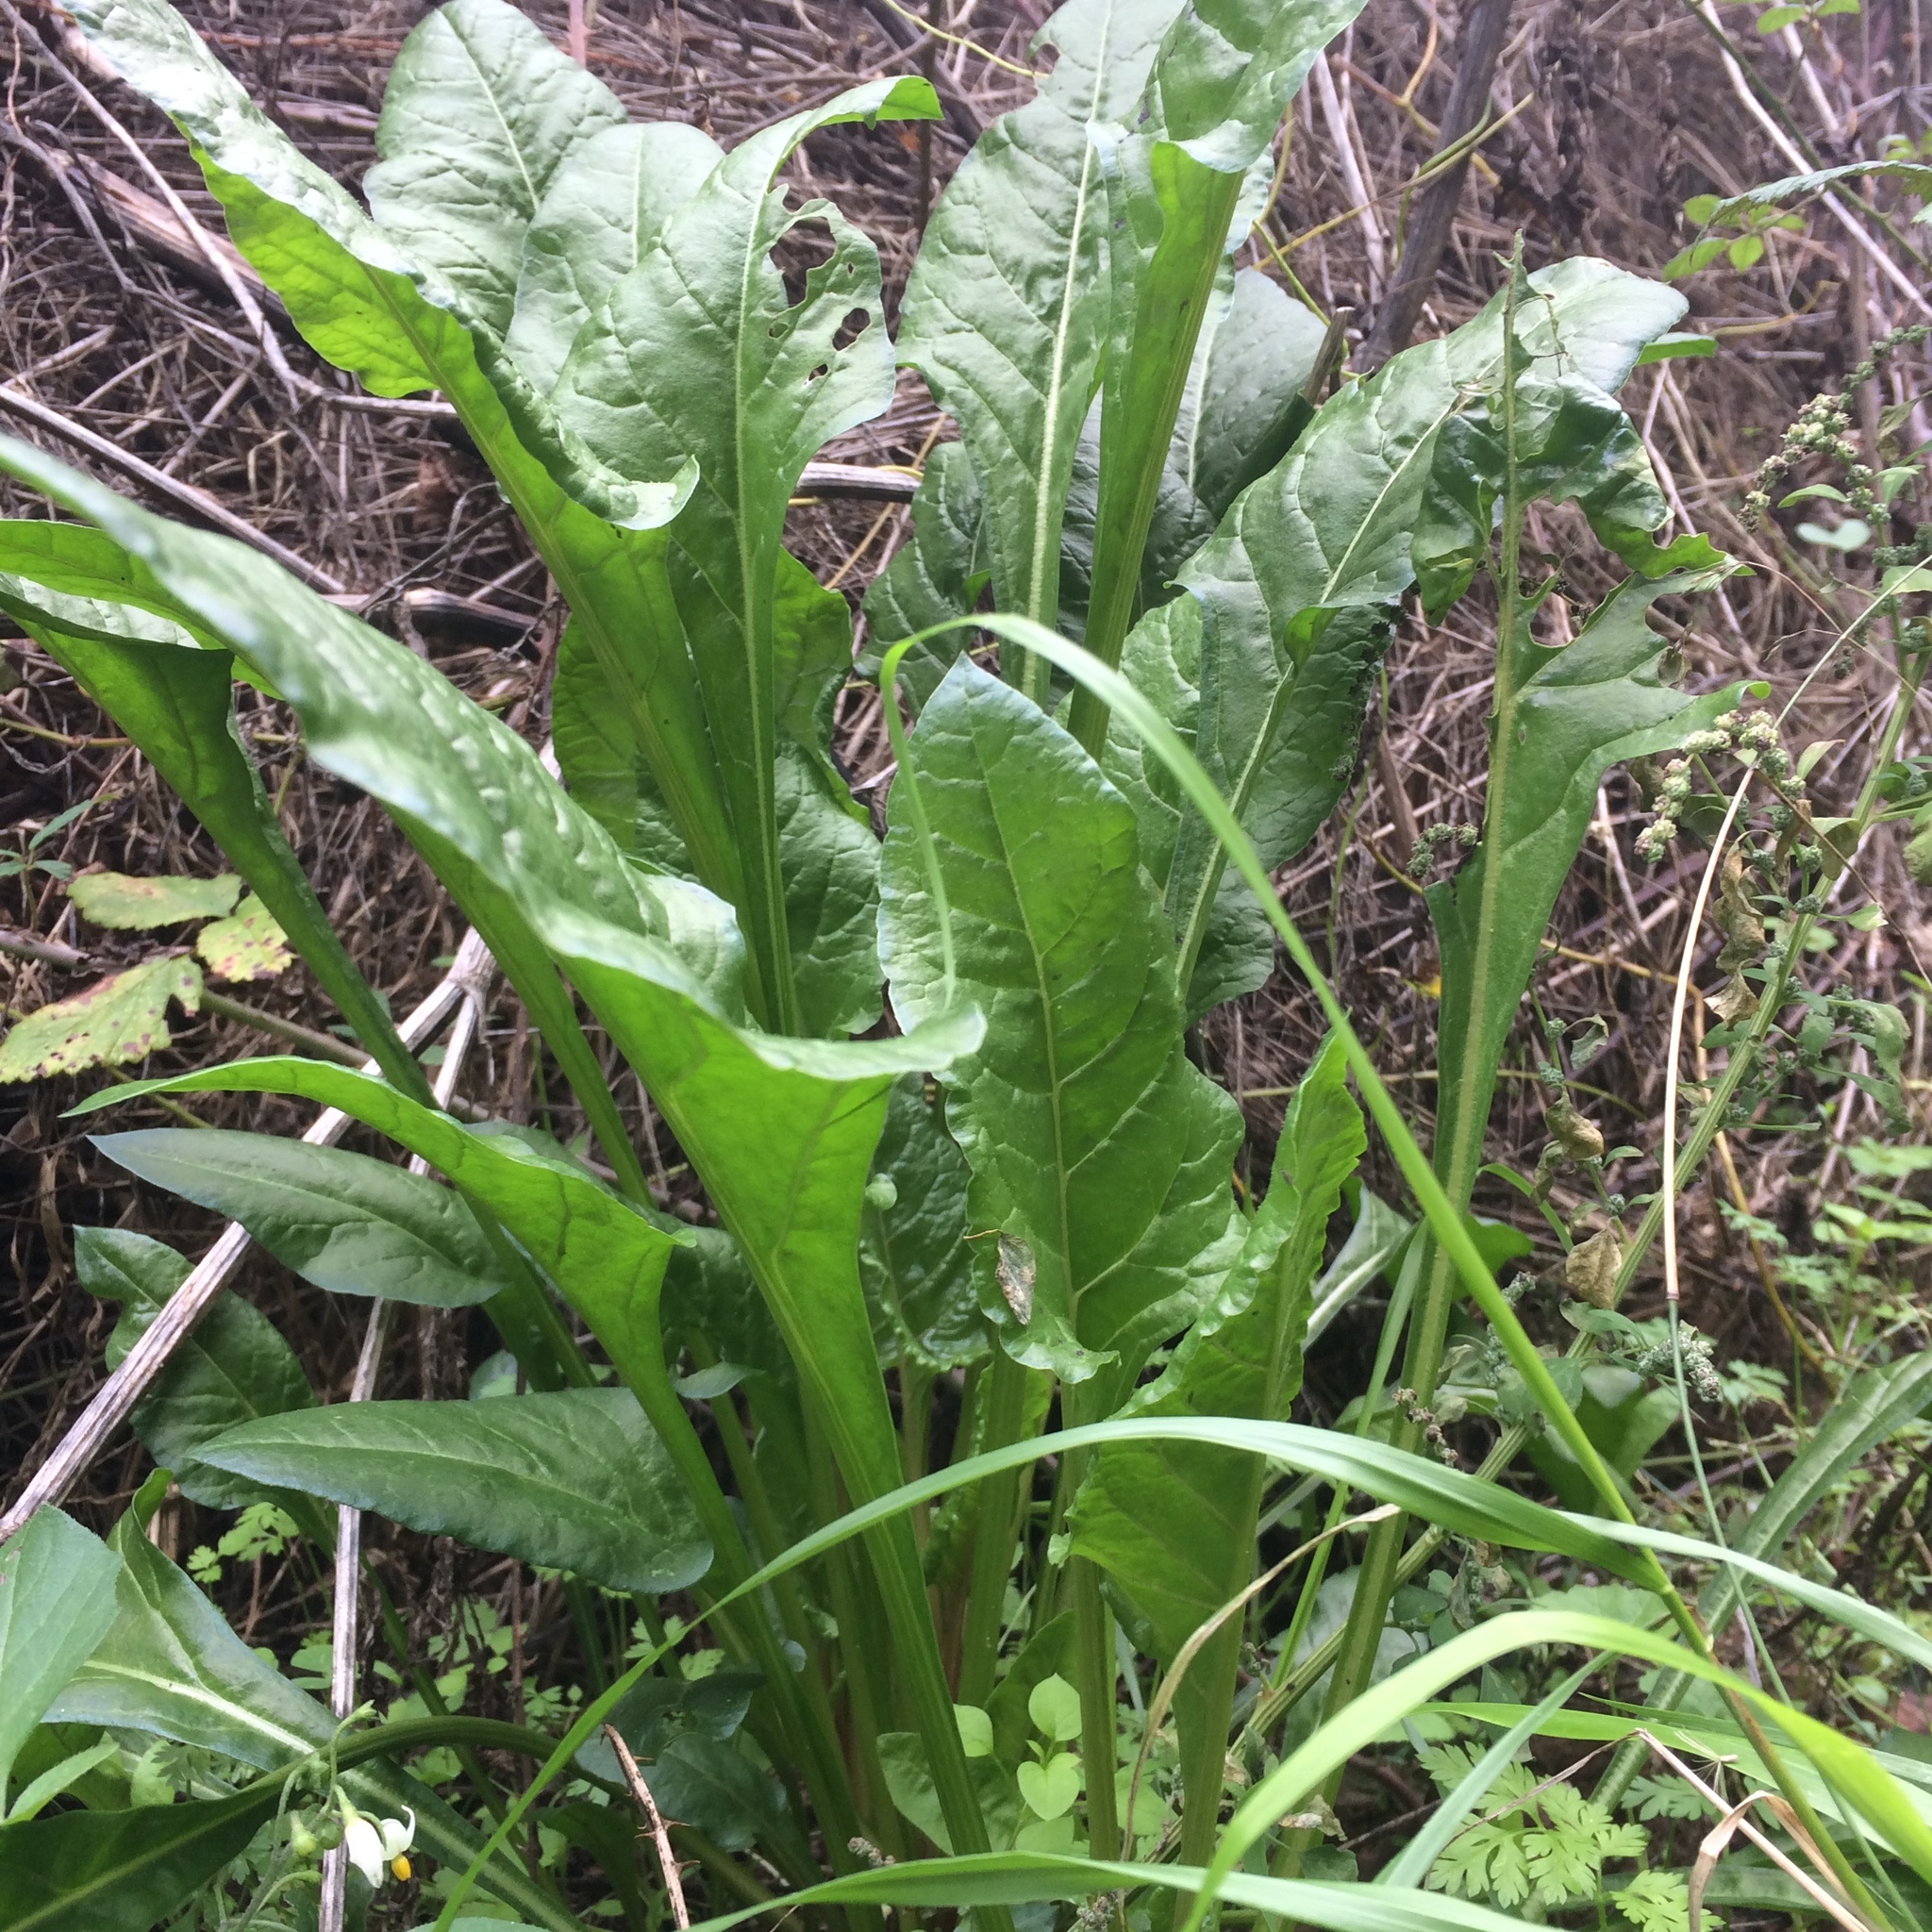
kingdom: Plantae
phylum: Tracheophyta
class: Magnoliopsida
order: Caryophyllales
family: Amaranthaceae
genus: Beta
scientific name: Beta vulgaris
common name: Beet
